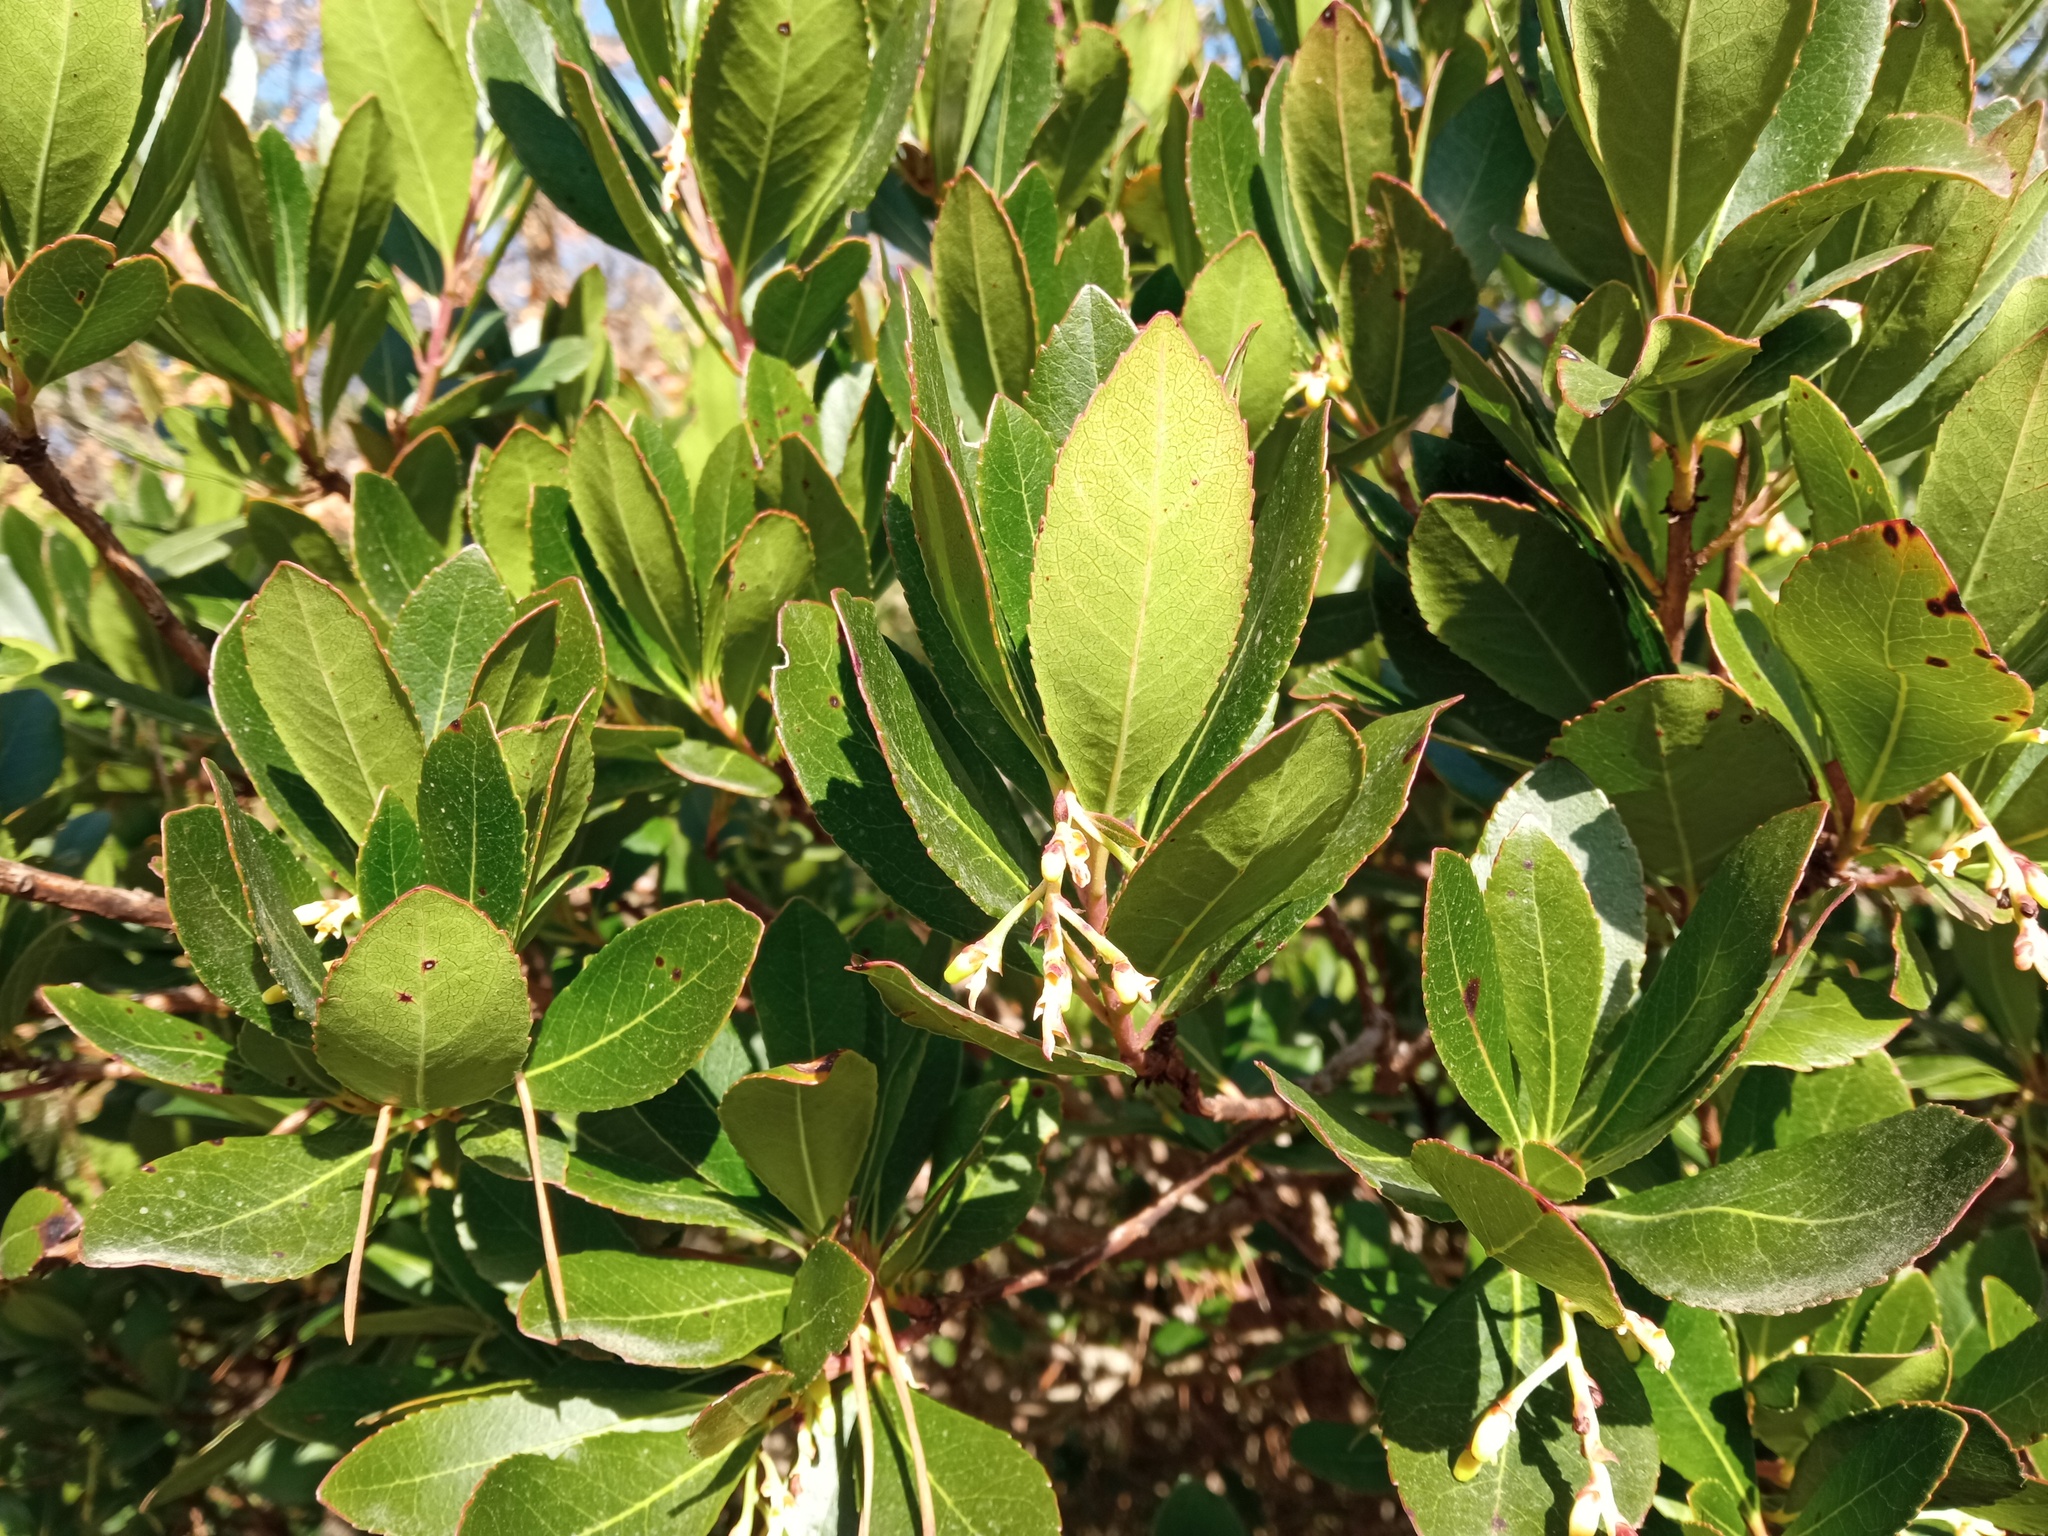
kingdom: Plantae
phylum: Tracheophyta
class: Magnoliopsida
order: Ericales
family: Ericaceae
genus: Arbutus
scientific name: Arbutus unedo
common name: Strawberry-tree
